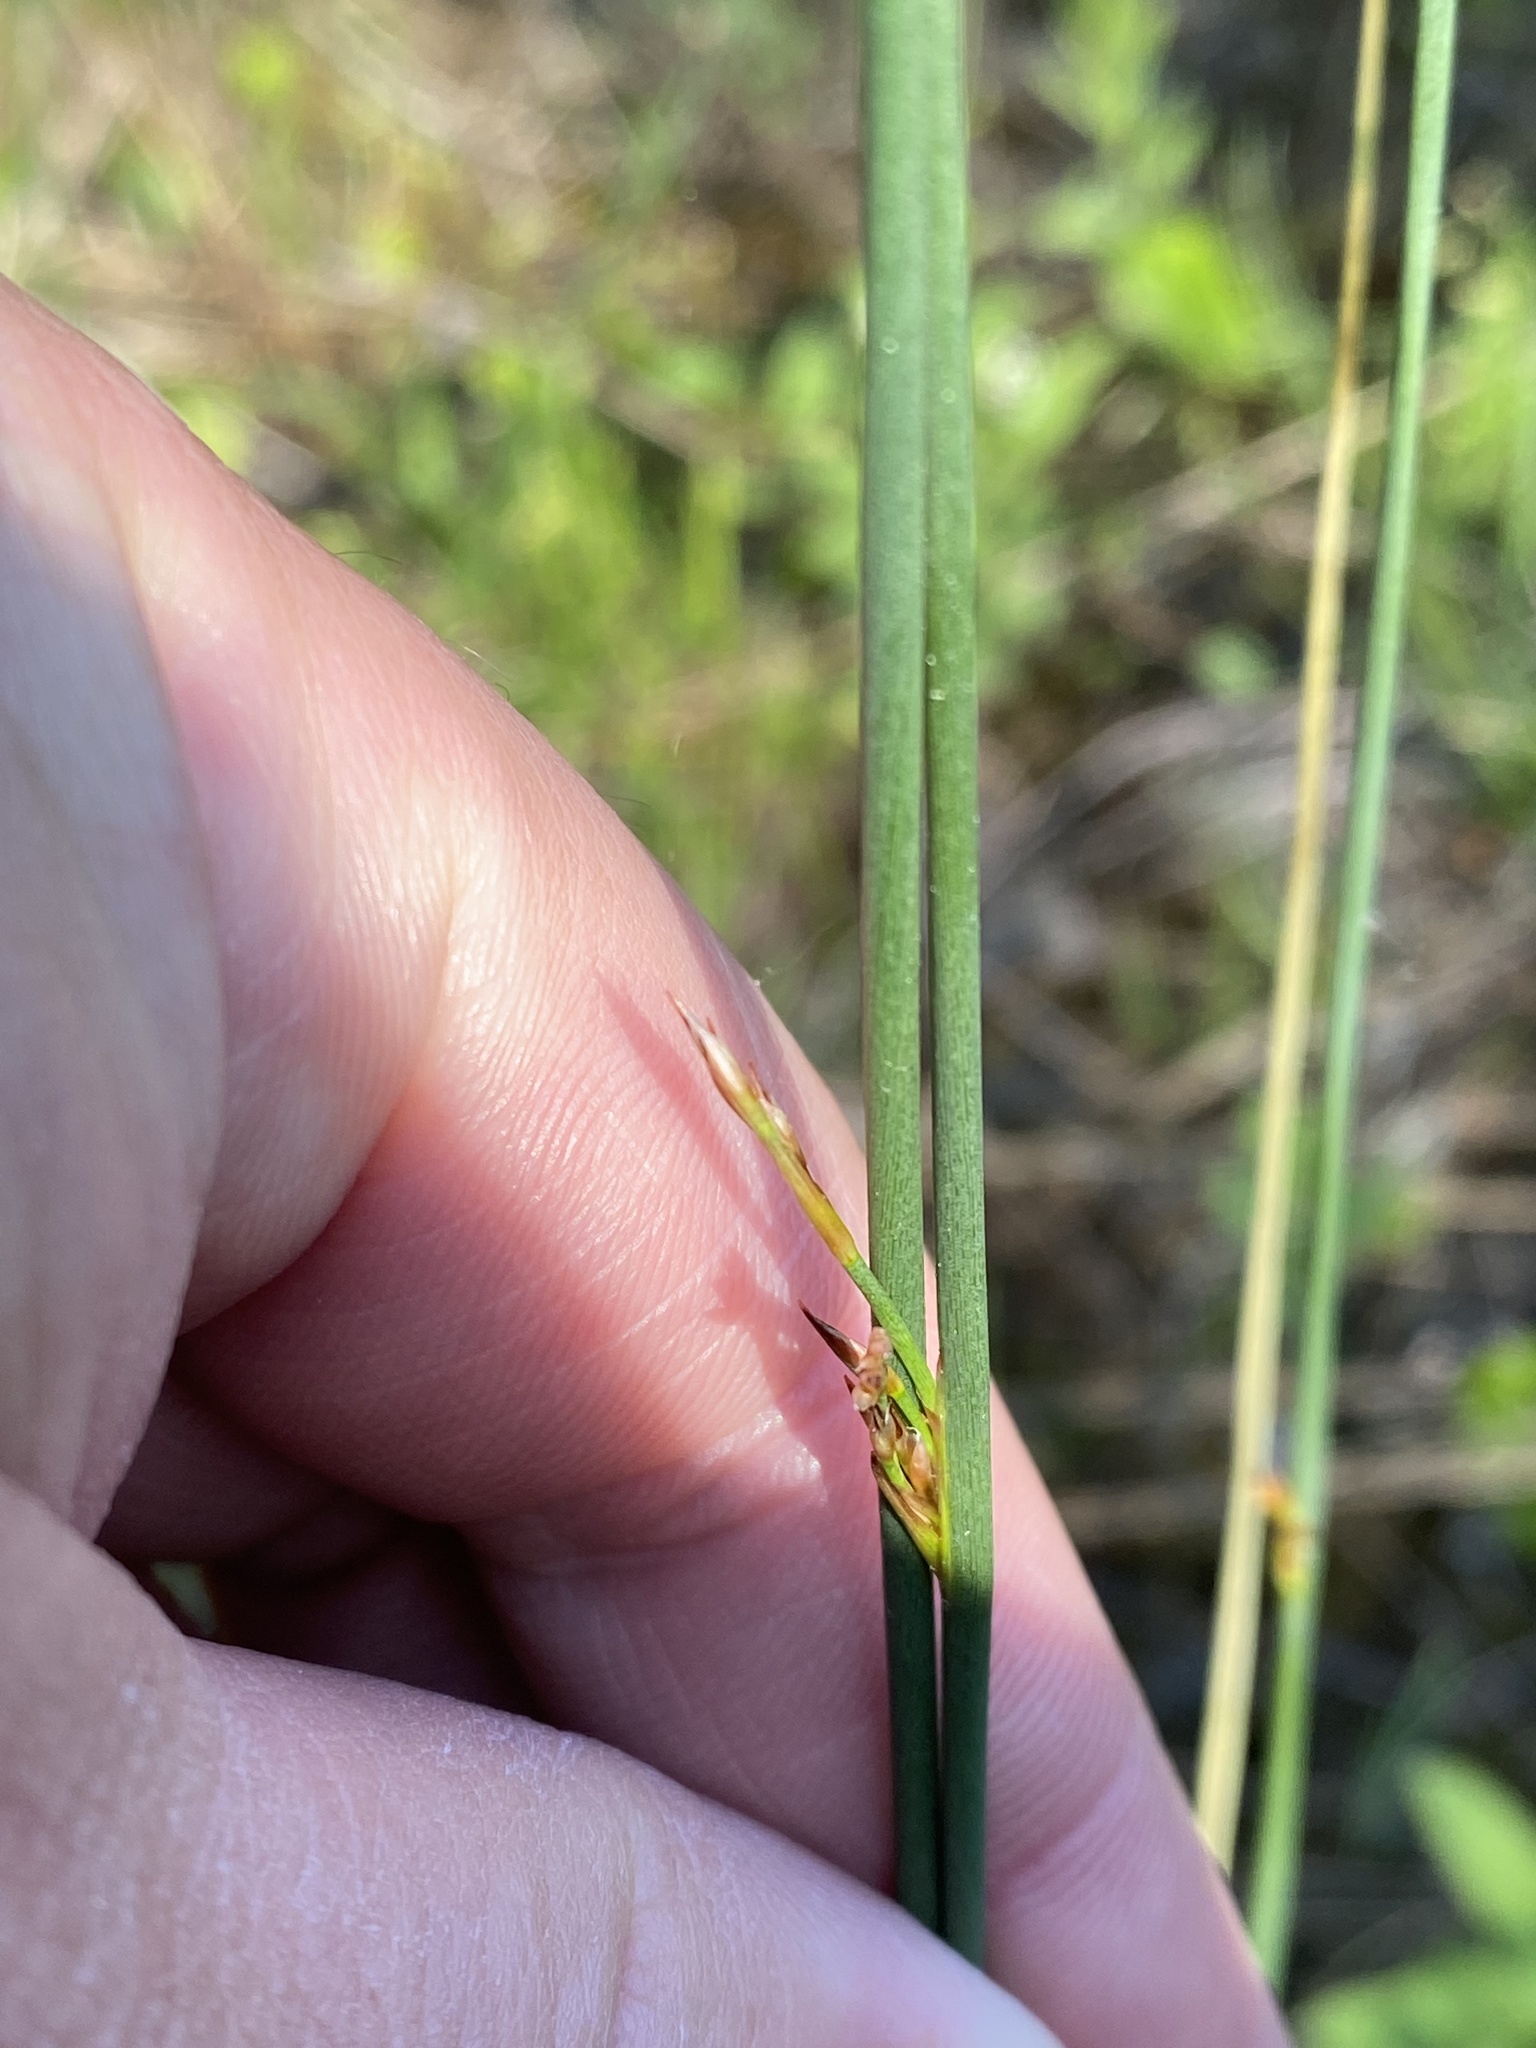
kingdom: Plantae
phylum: Tracheophyta
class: Liliopsida
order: Poales
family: Juncaceae
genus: Juncus
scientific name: Juncus balticus
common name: Baltic rush
